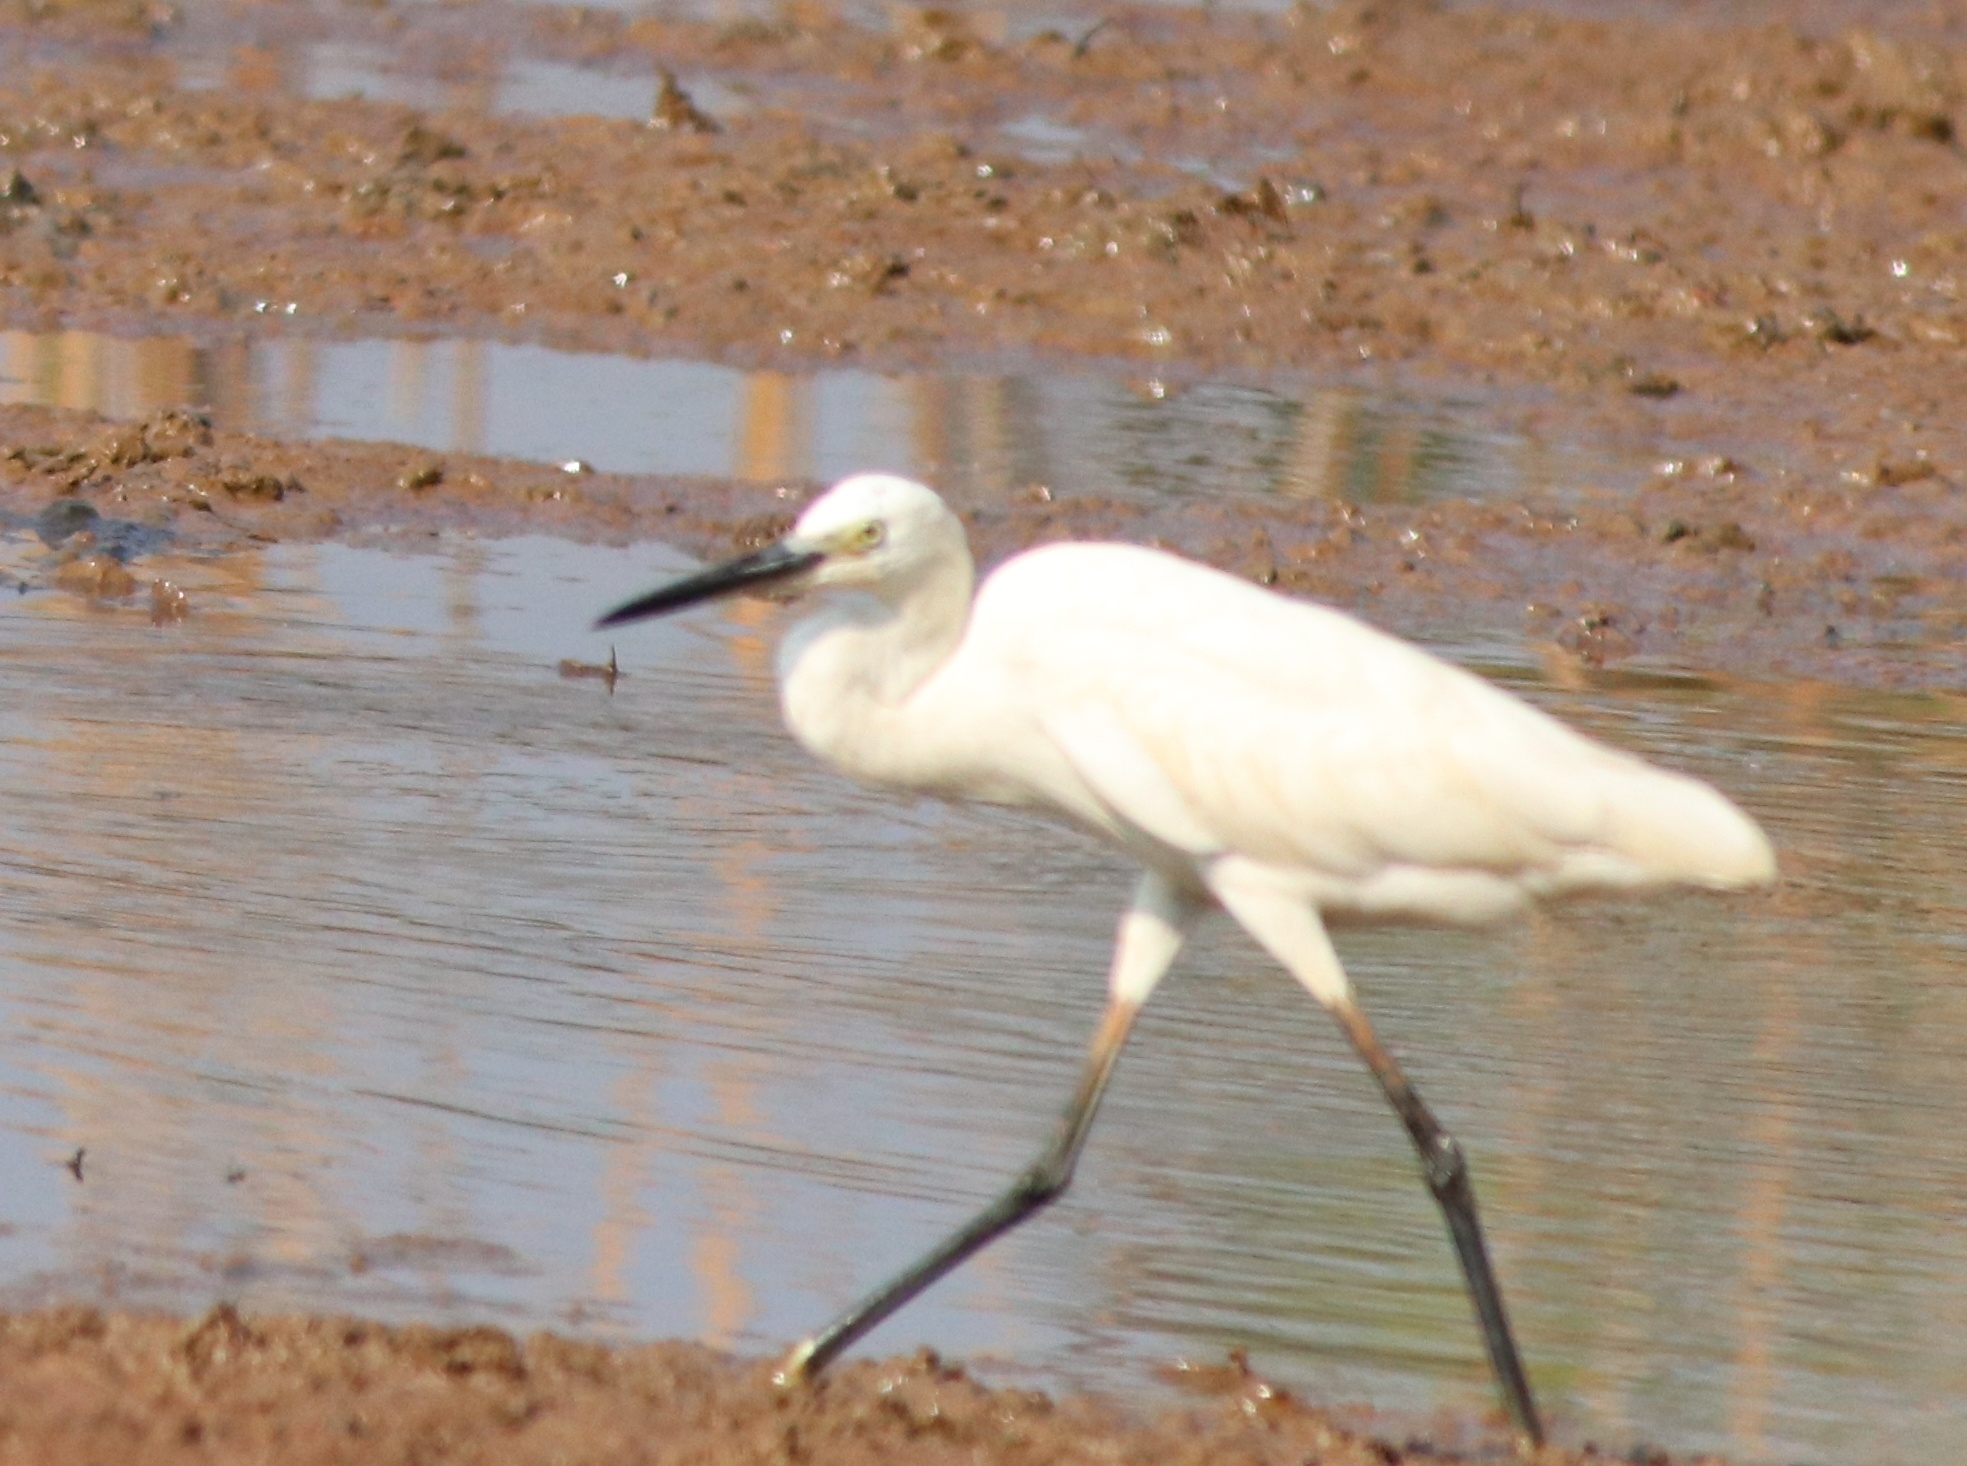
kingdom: Animalia
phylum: Chordata
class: Aves
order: Pelecaniformes
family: Ardeidae
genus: Egretta
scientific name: Egretta garzetta
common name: Little egret
